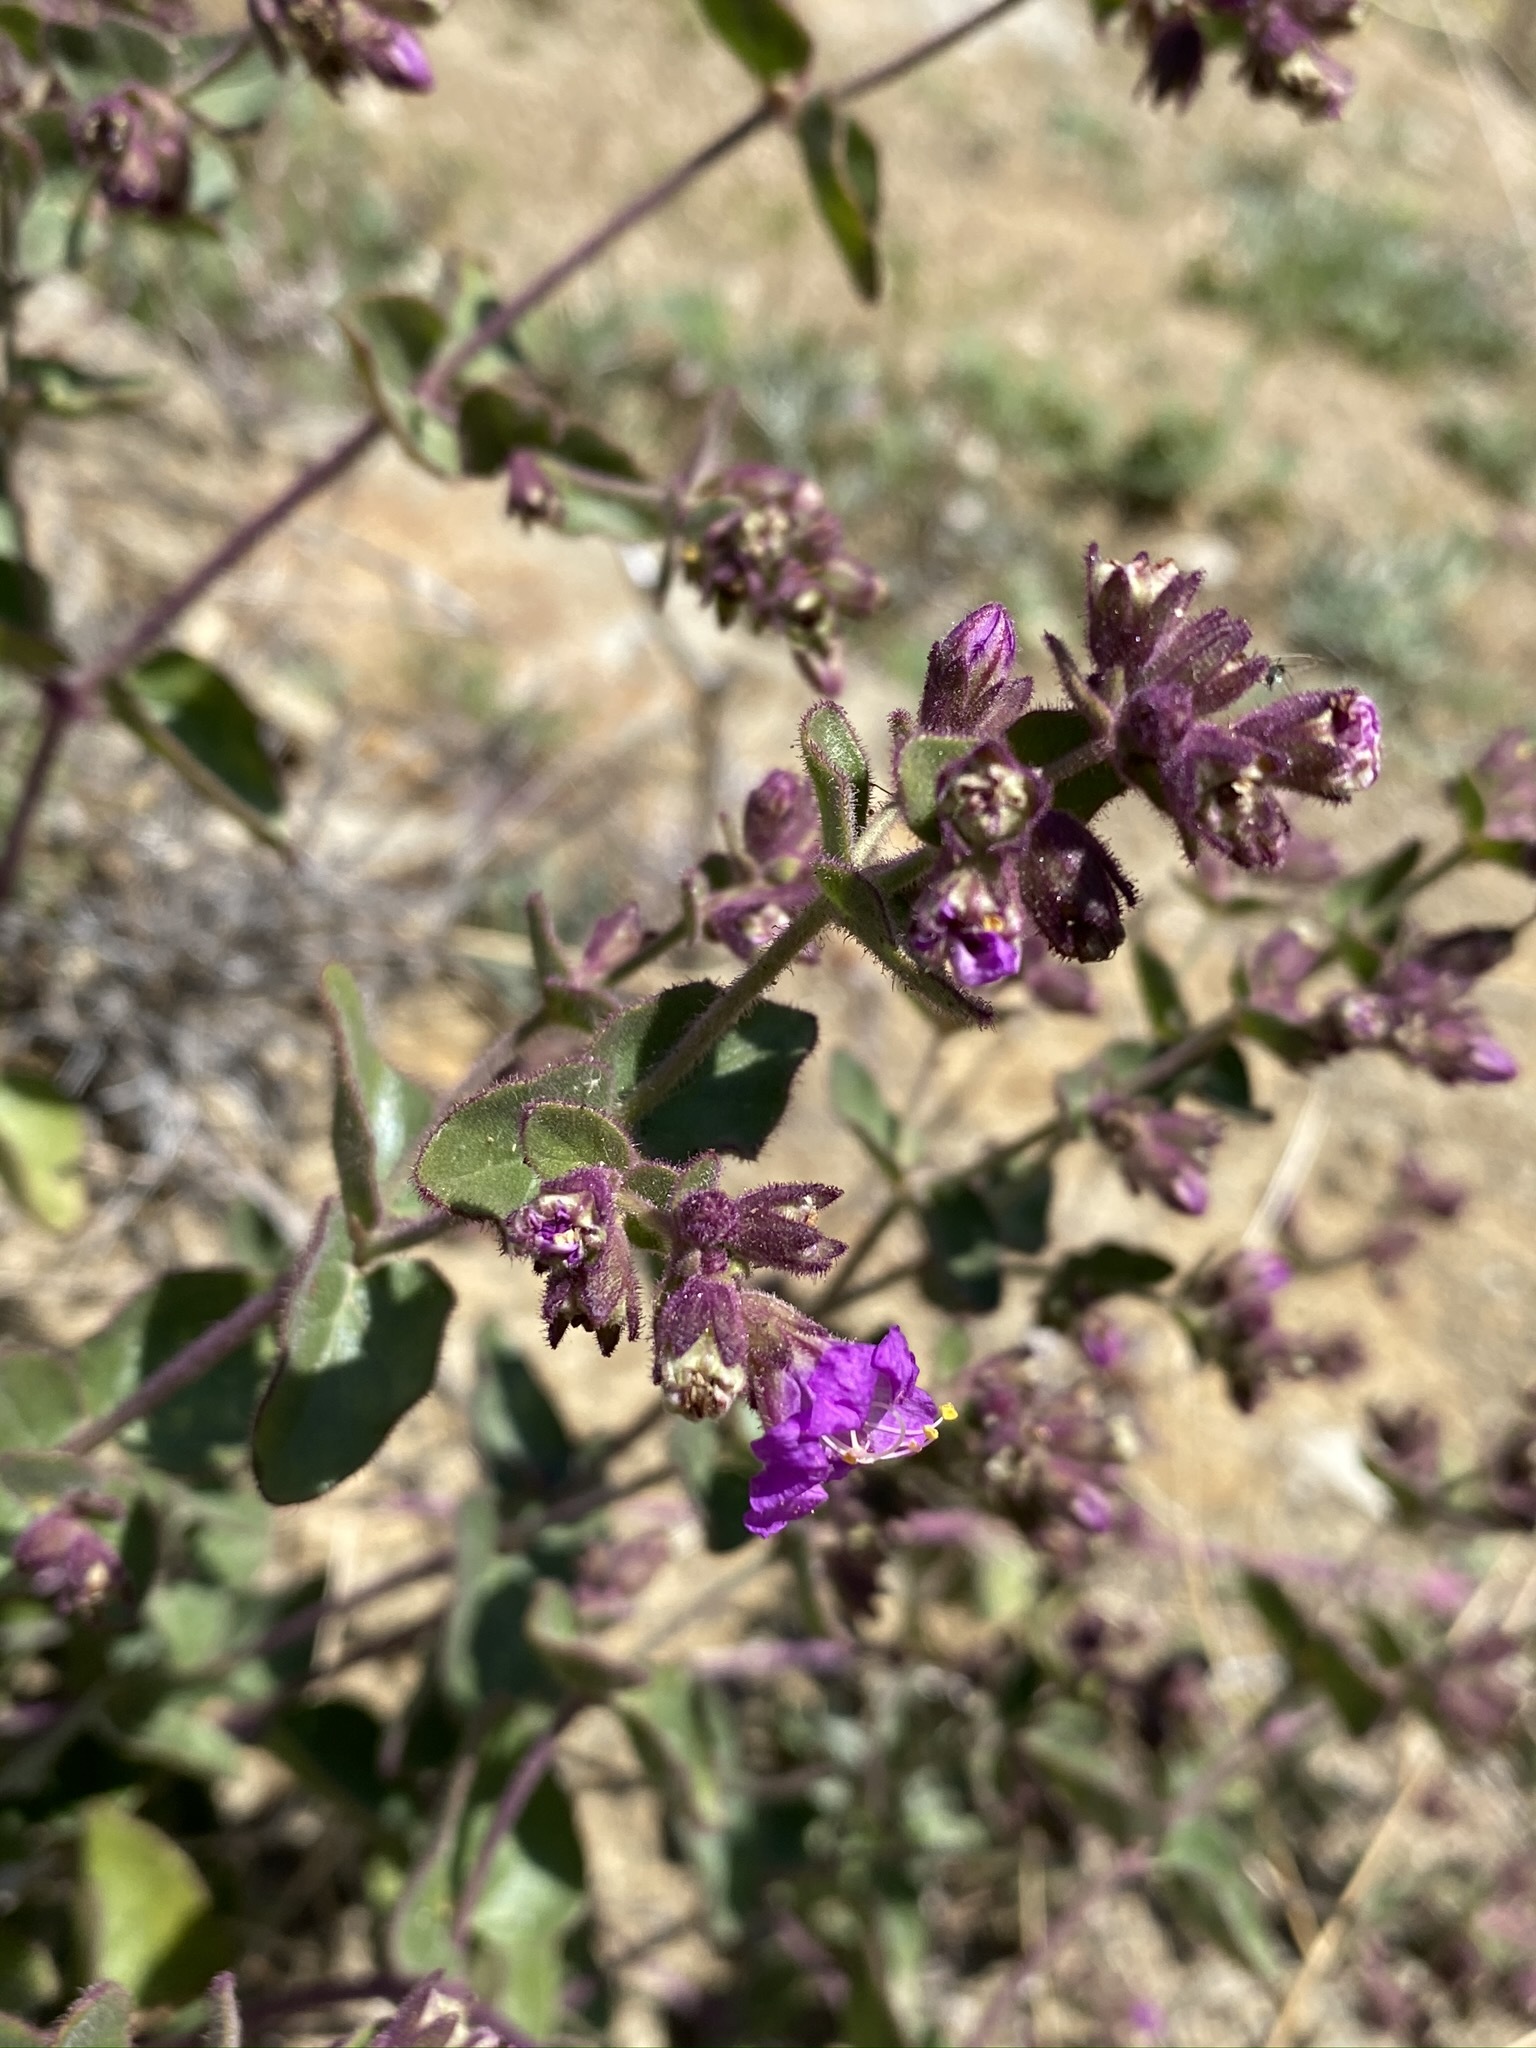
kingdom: Plantae
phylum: Tracheophyta
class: Magnoliopsida
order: Caryophyllales
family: Nyctaginaceae
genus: Mirabilis
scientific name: Mirabilis laevis
